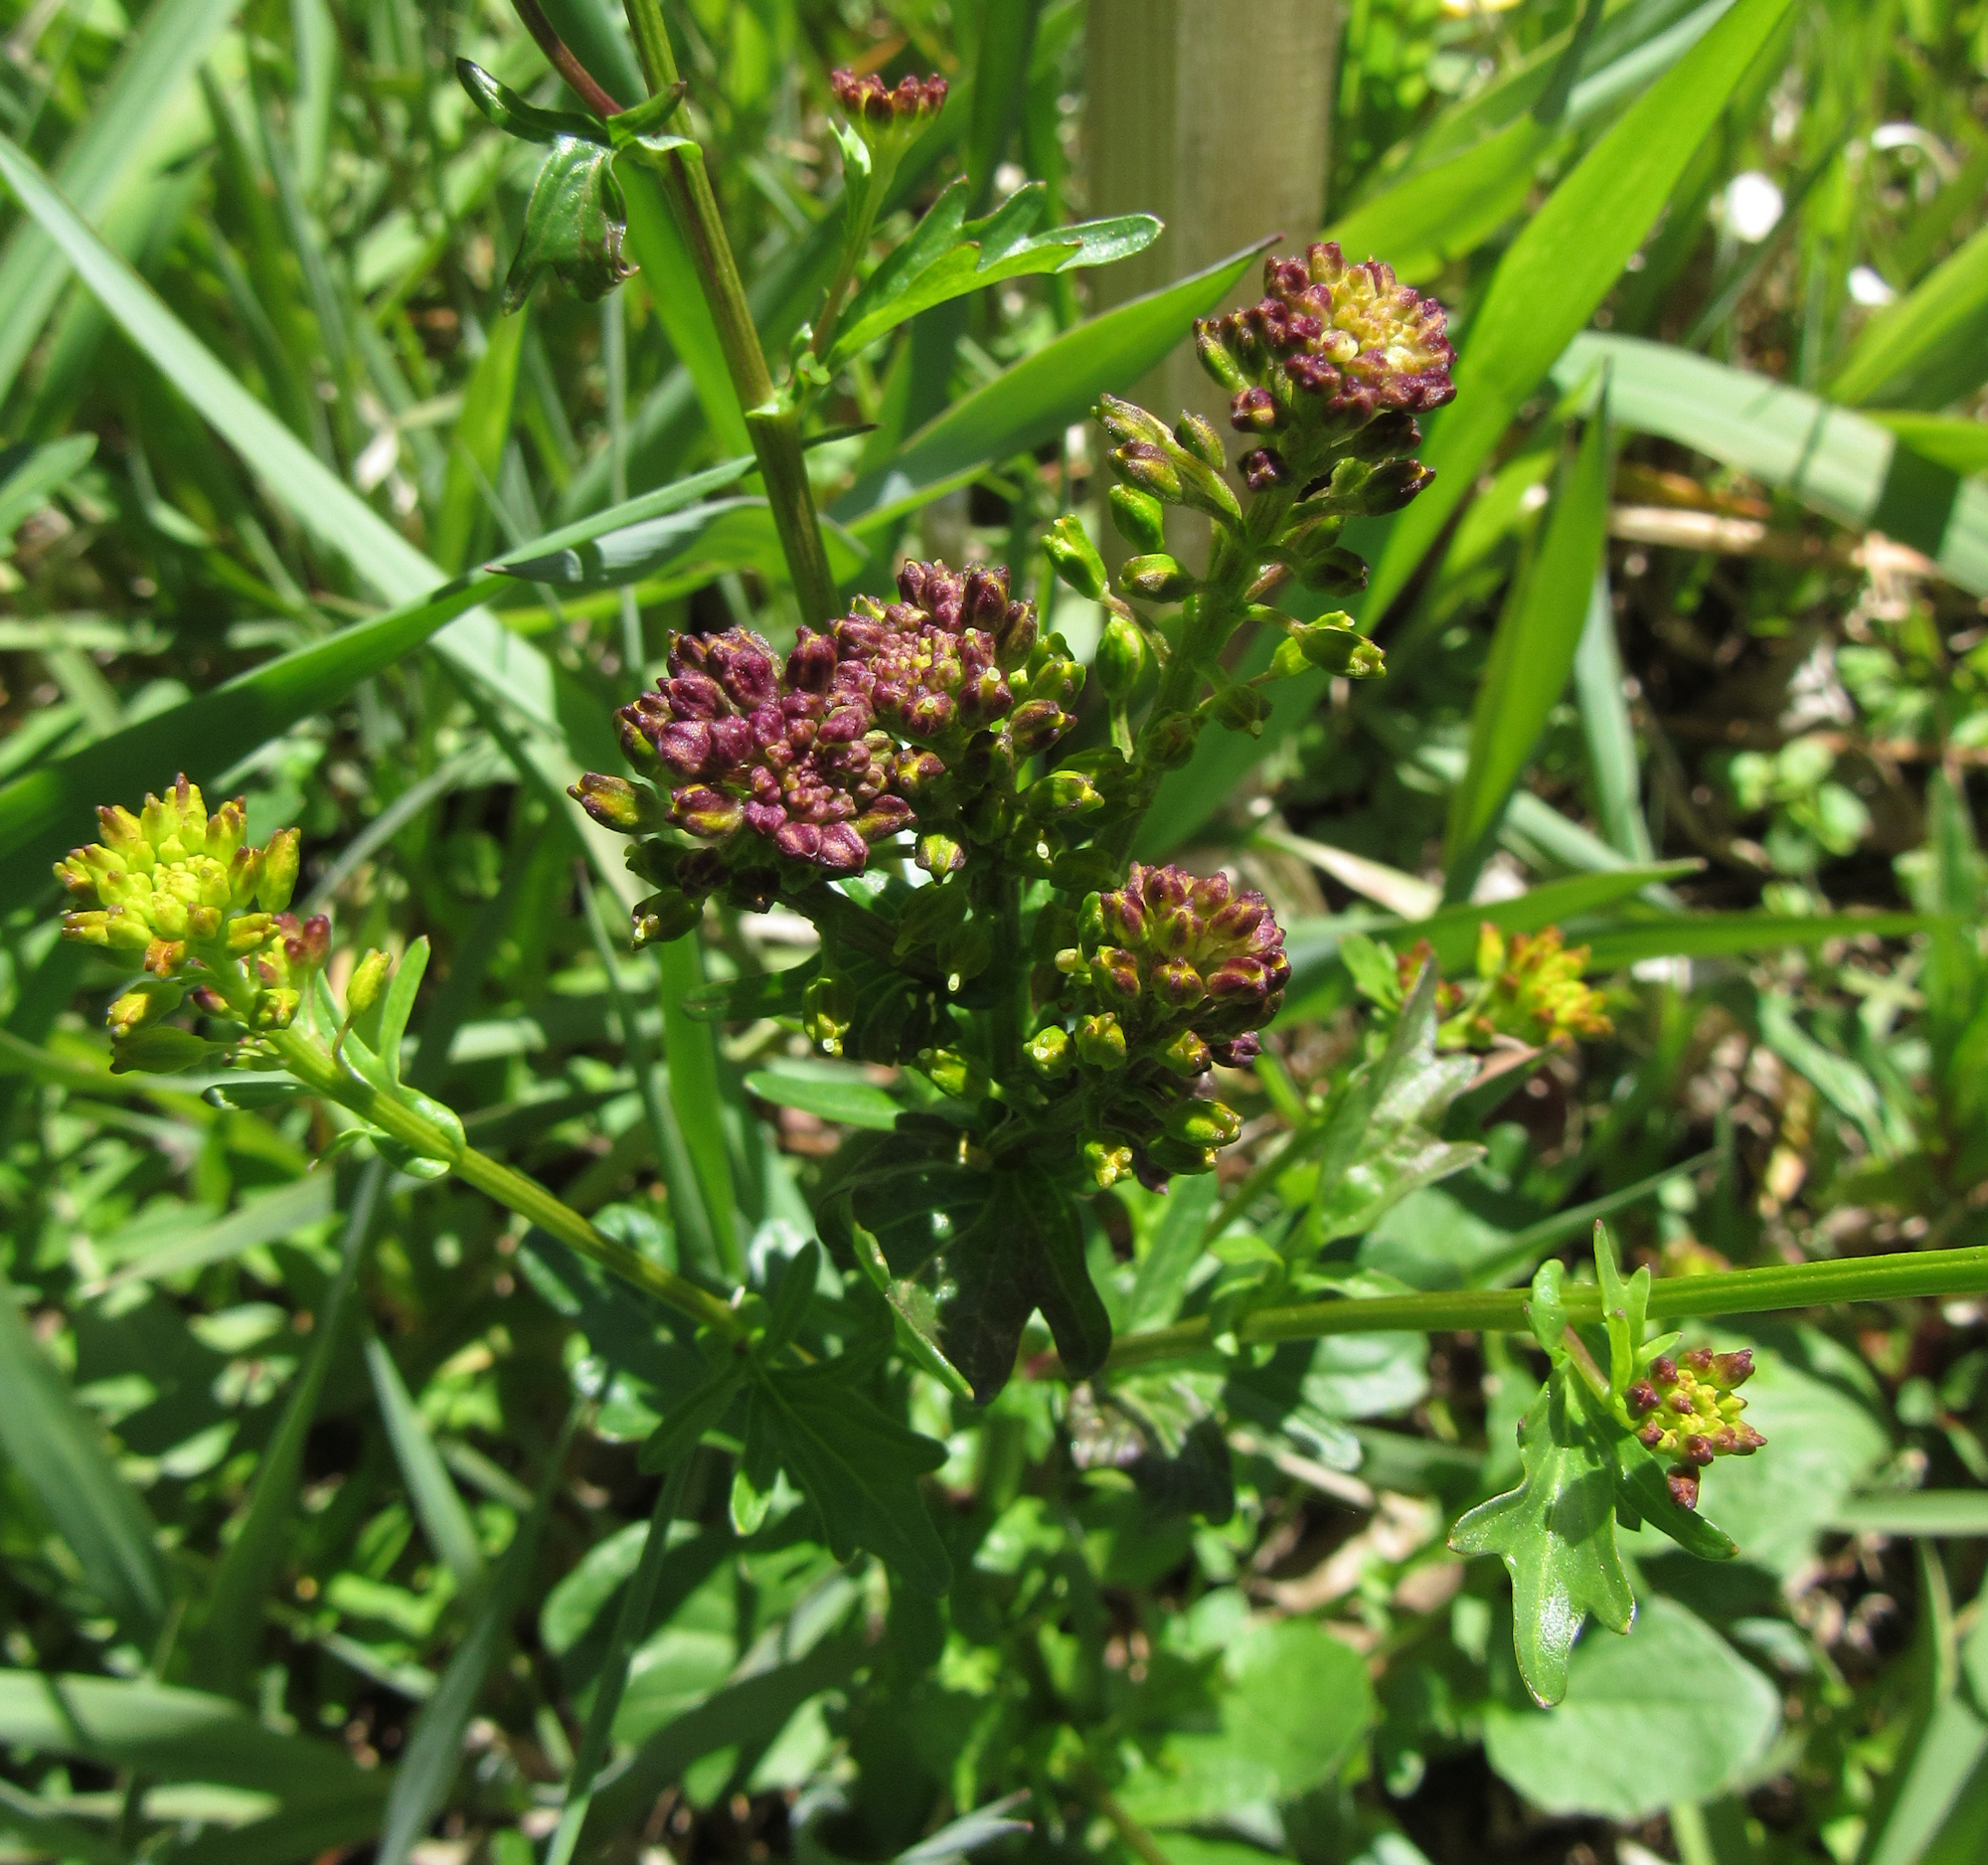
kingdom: Plantae
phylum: Tracheophyta
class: Magnoliopsida
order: Brassicales
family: Brassicaceae
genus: Barbarea
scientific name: Barbarea orthoceras
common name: American wintercress
